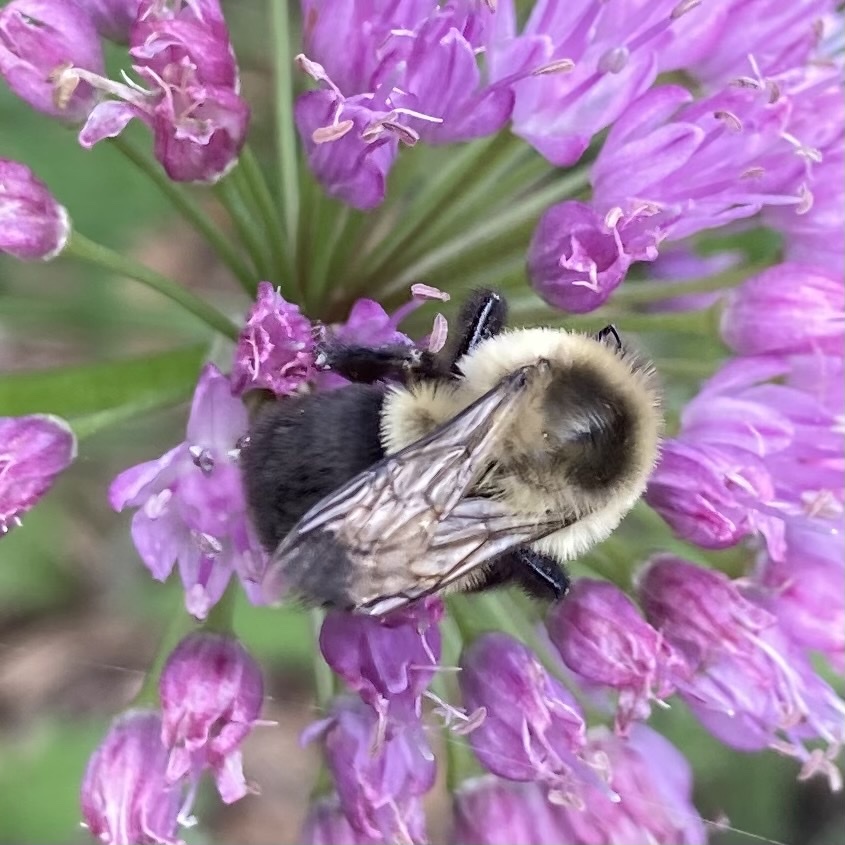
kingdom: Animalia
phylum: Arthropoda
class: Insecta
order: Hymenoptera
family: Apidae
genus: Bombus
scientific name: Bombus impatiens
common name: Common eastern bumble bee
